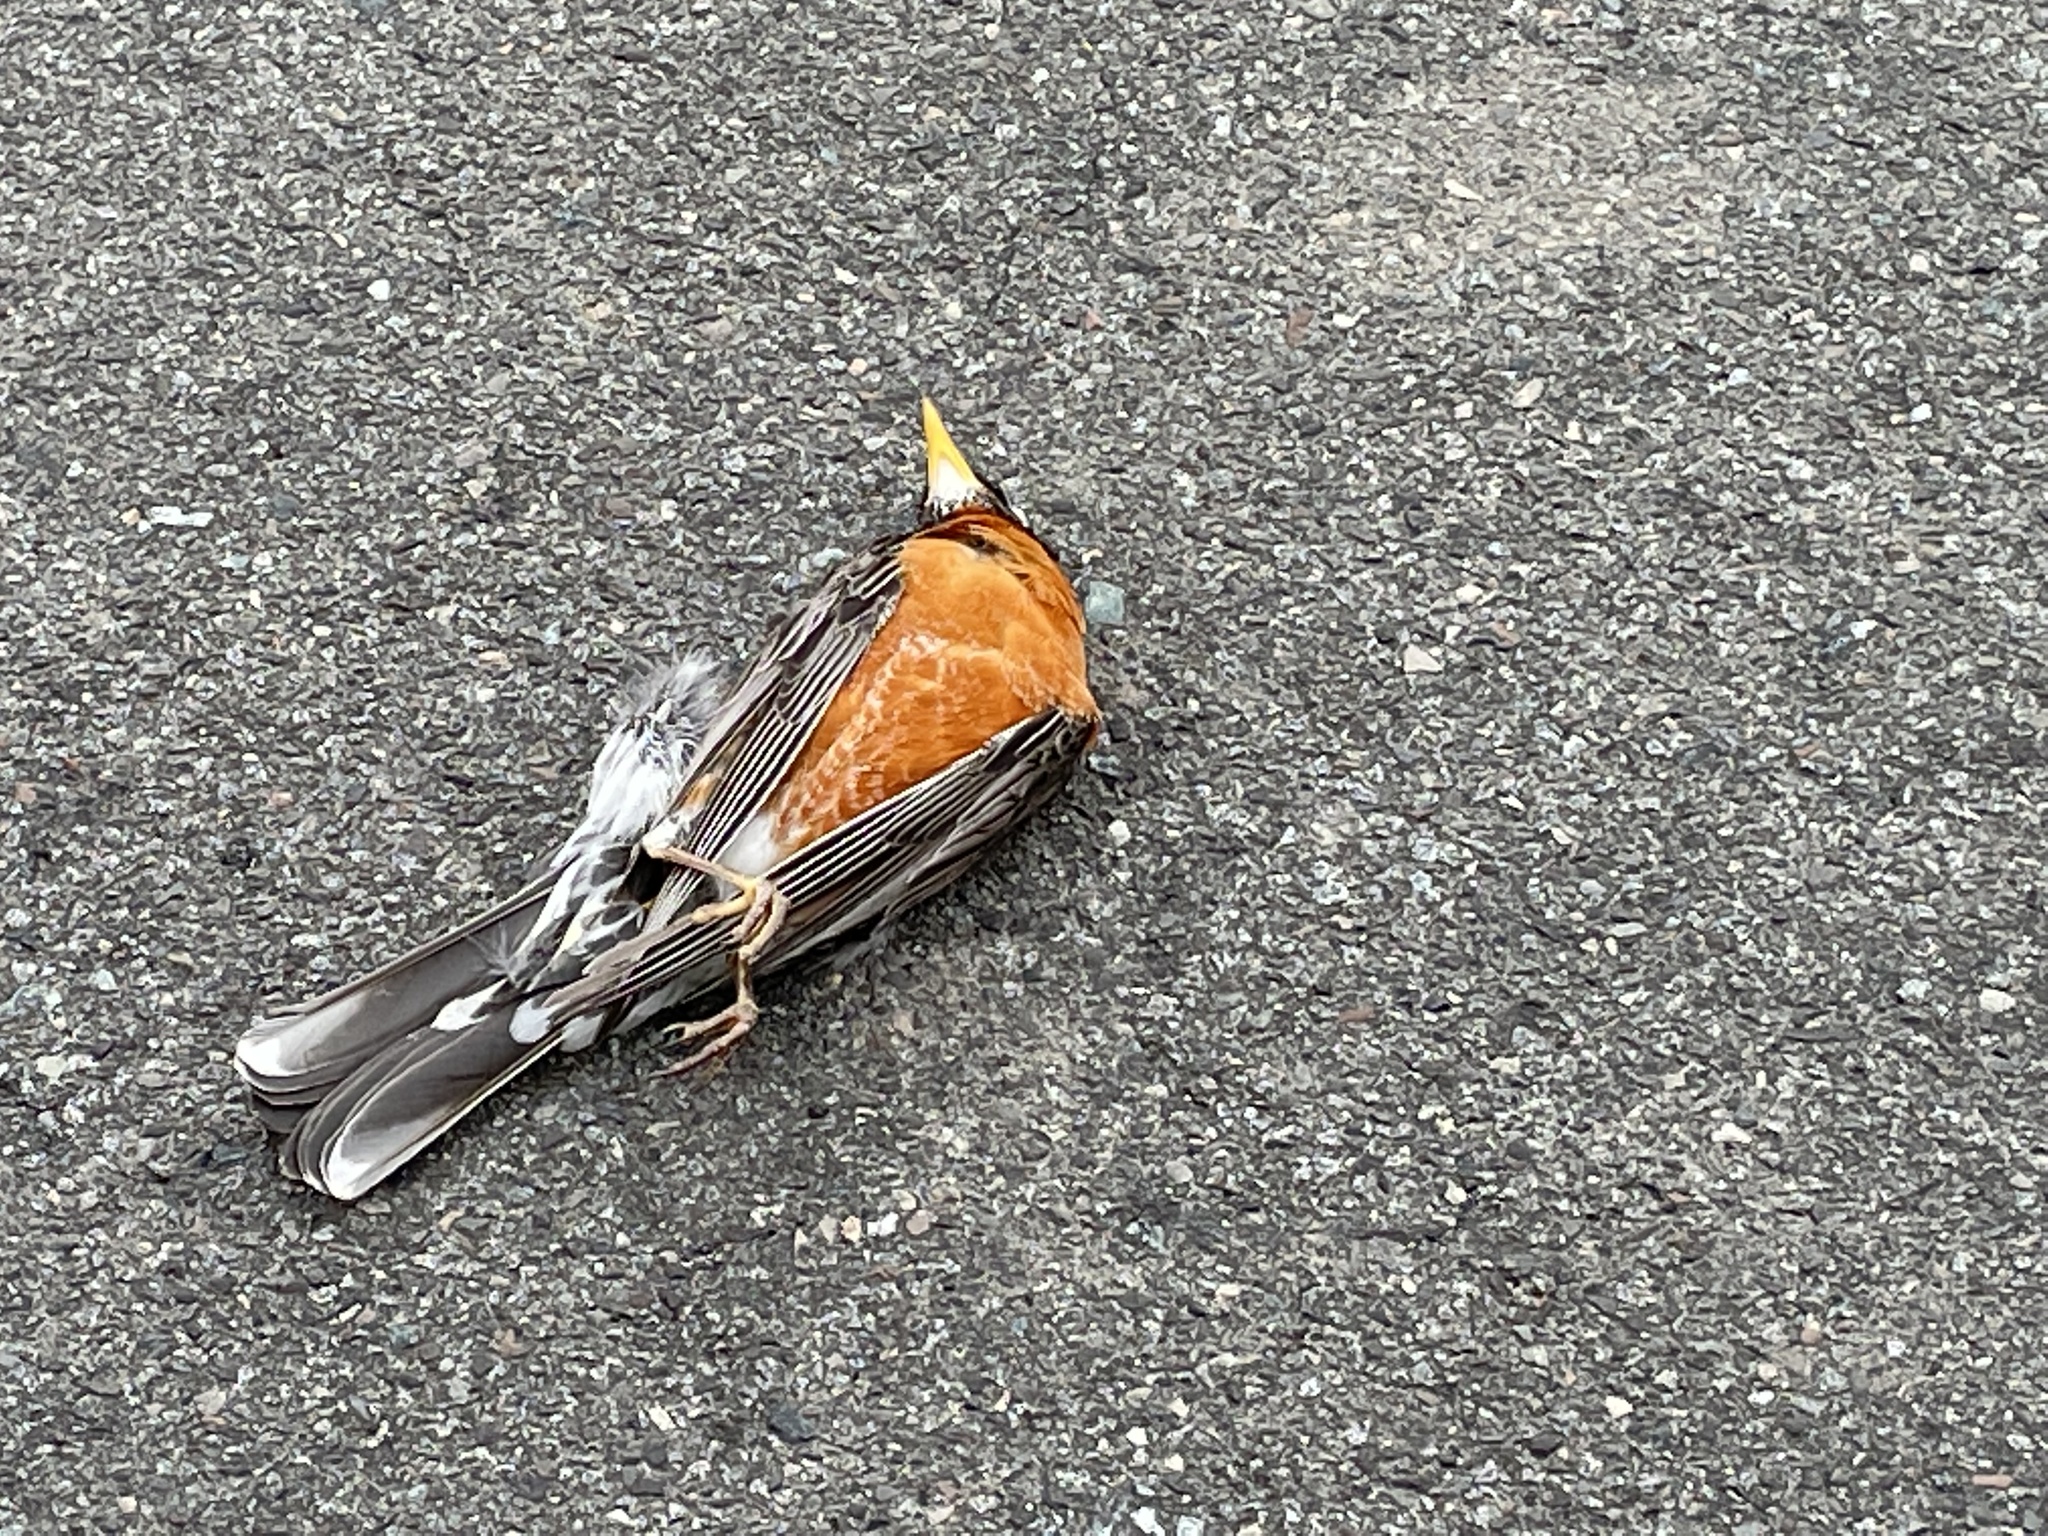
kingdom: Animalia
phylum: Chordata
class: Aves
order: Passeriformes
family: Turdidae
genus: Turdus
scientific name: Turdus migratorius
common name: American robin
